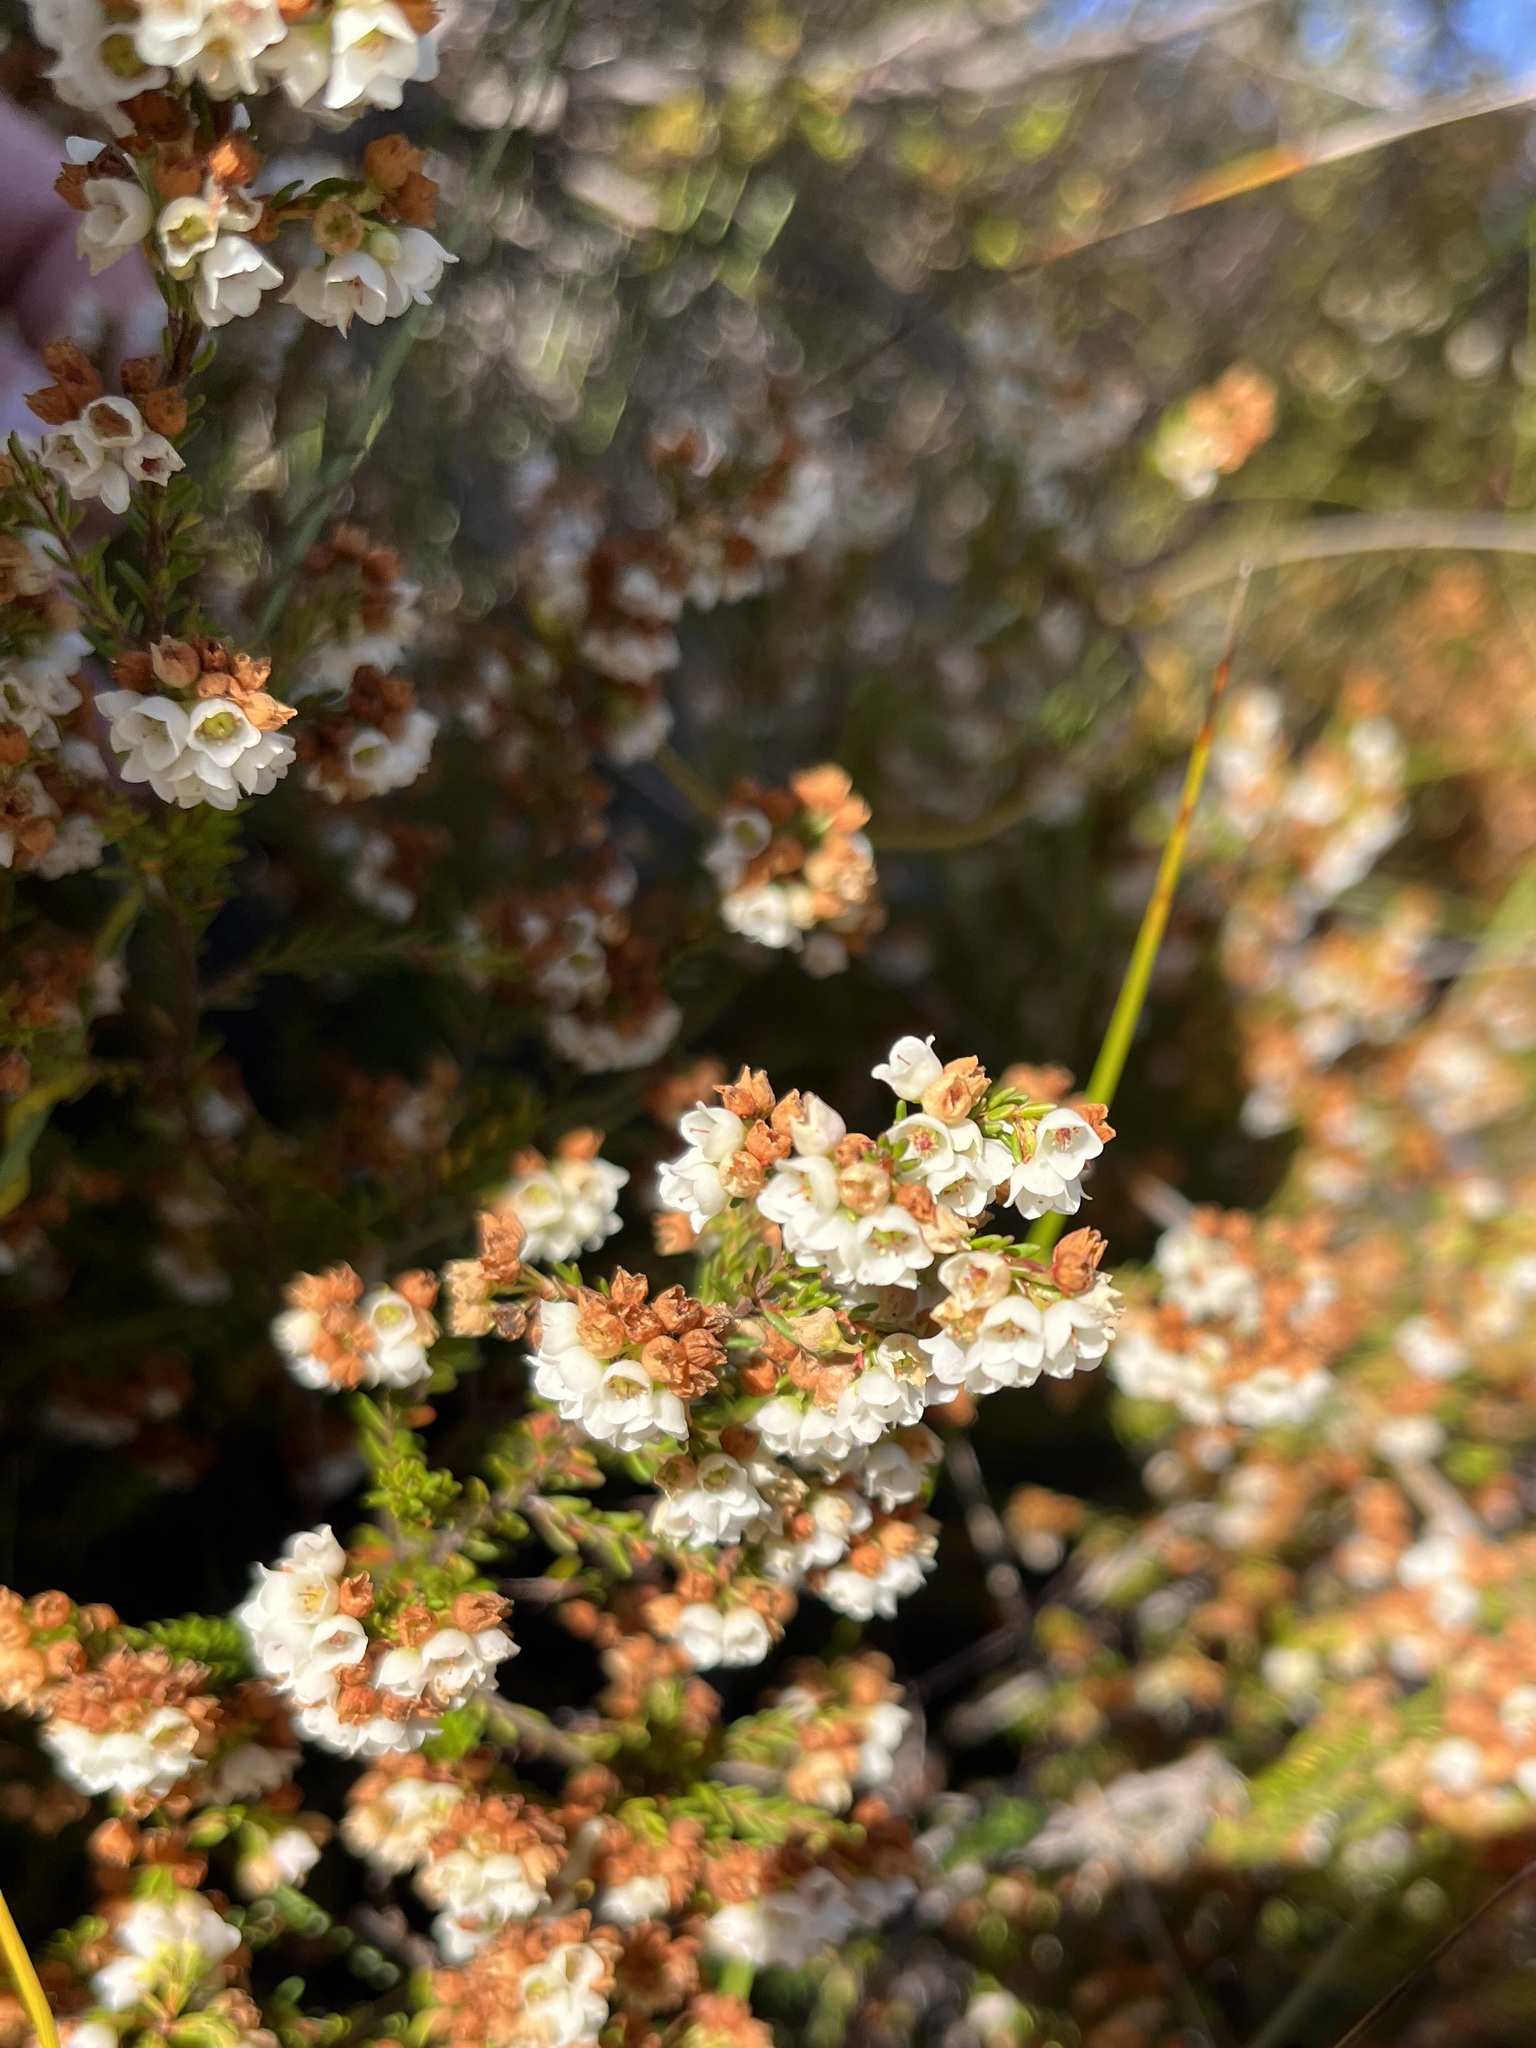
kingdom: Plantae
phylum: Tracheophyta
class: Magnoliopsida
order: Ericales
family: Ericaceae
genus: Erica
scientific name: Erica subdivaricata
